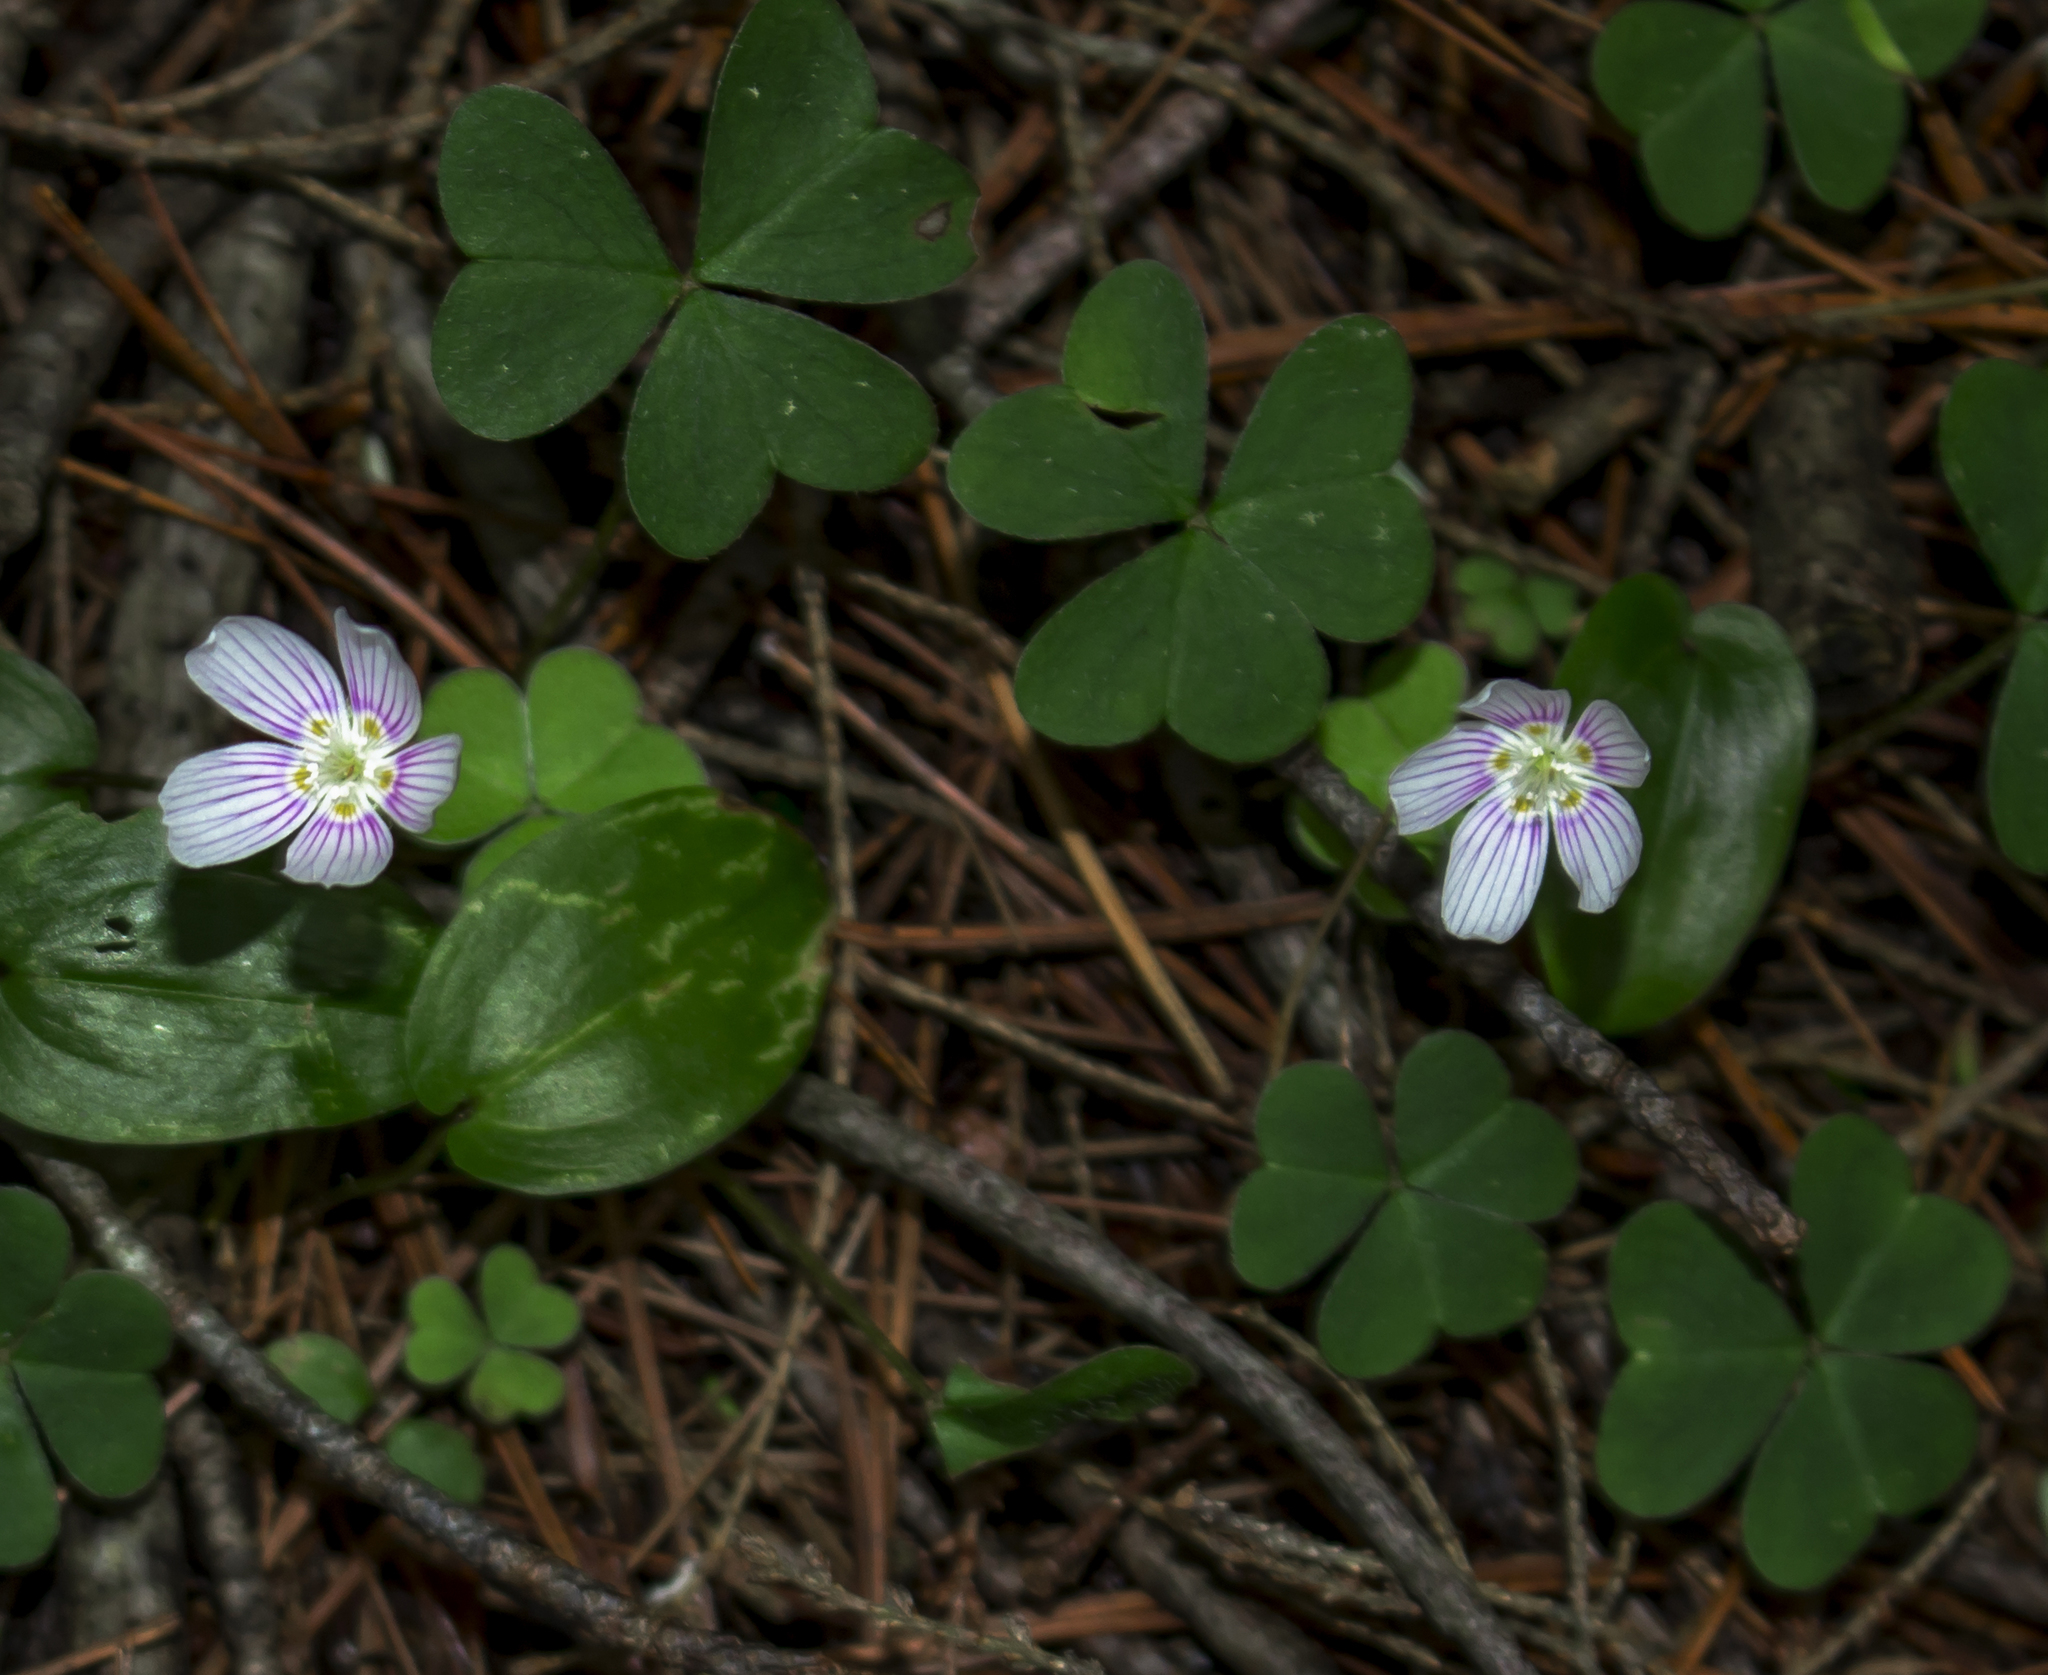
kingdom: Plantae
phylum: Tracheophyta
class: Magnoliopsida
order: Oxalidales
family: Oxalidaceae
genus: Oxalis
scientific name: Oxalis montana
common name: American wood-sorrel
